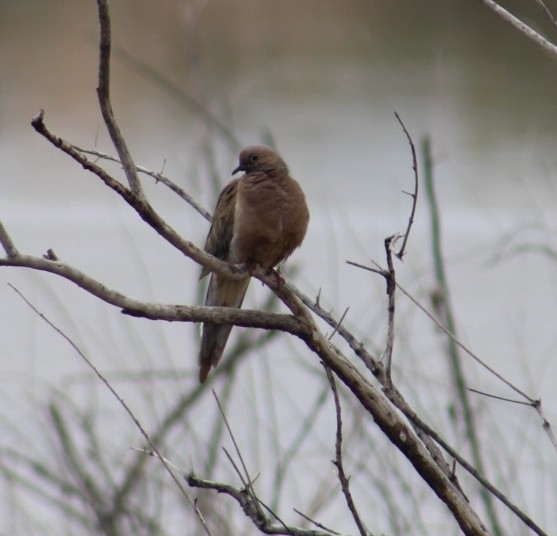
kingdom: Animalia
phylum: Chordata
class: Aves
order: Columbiformes
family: Columbidae
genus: Zenaida
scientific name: Zenaida macroura
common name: Mourning dove
